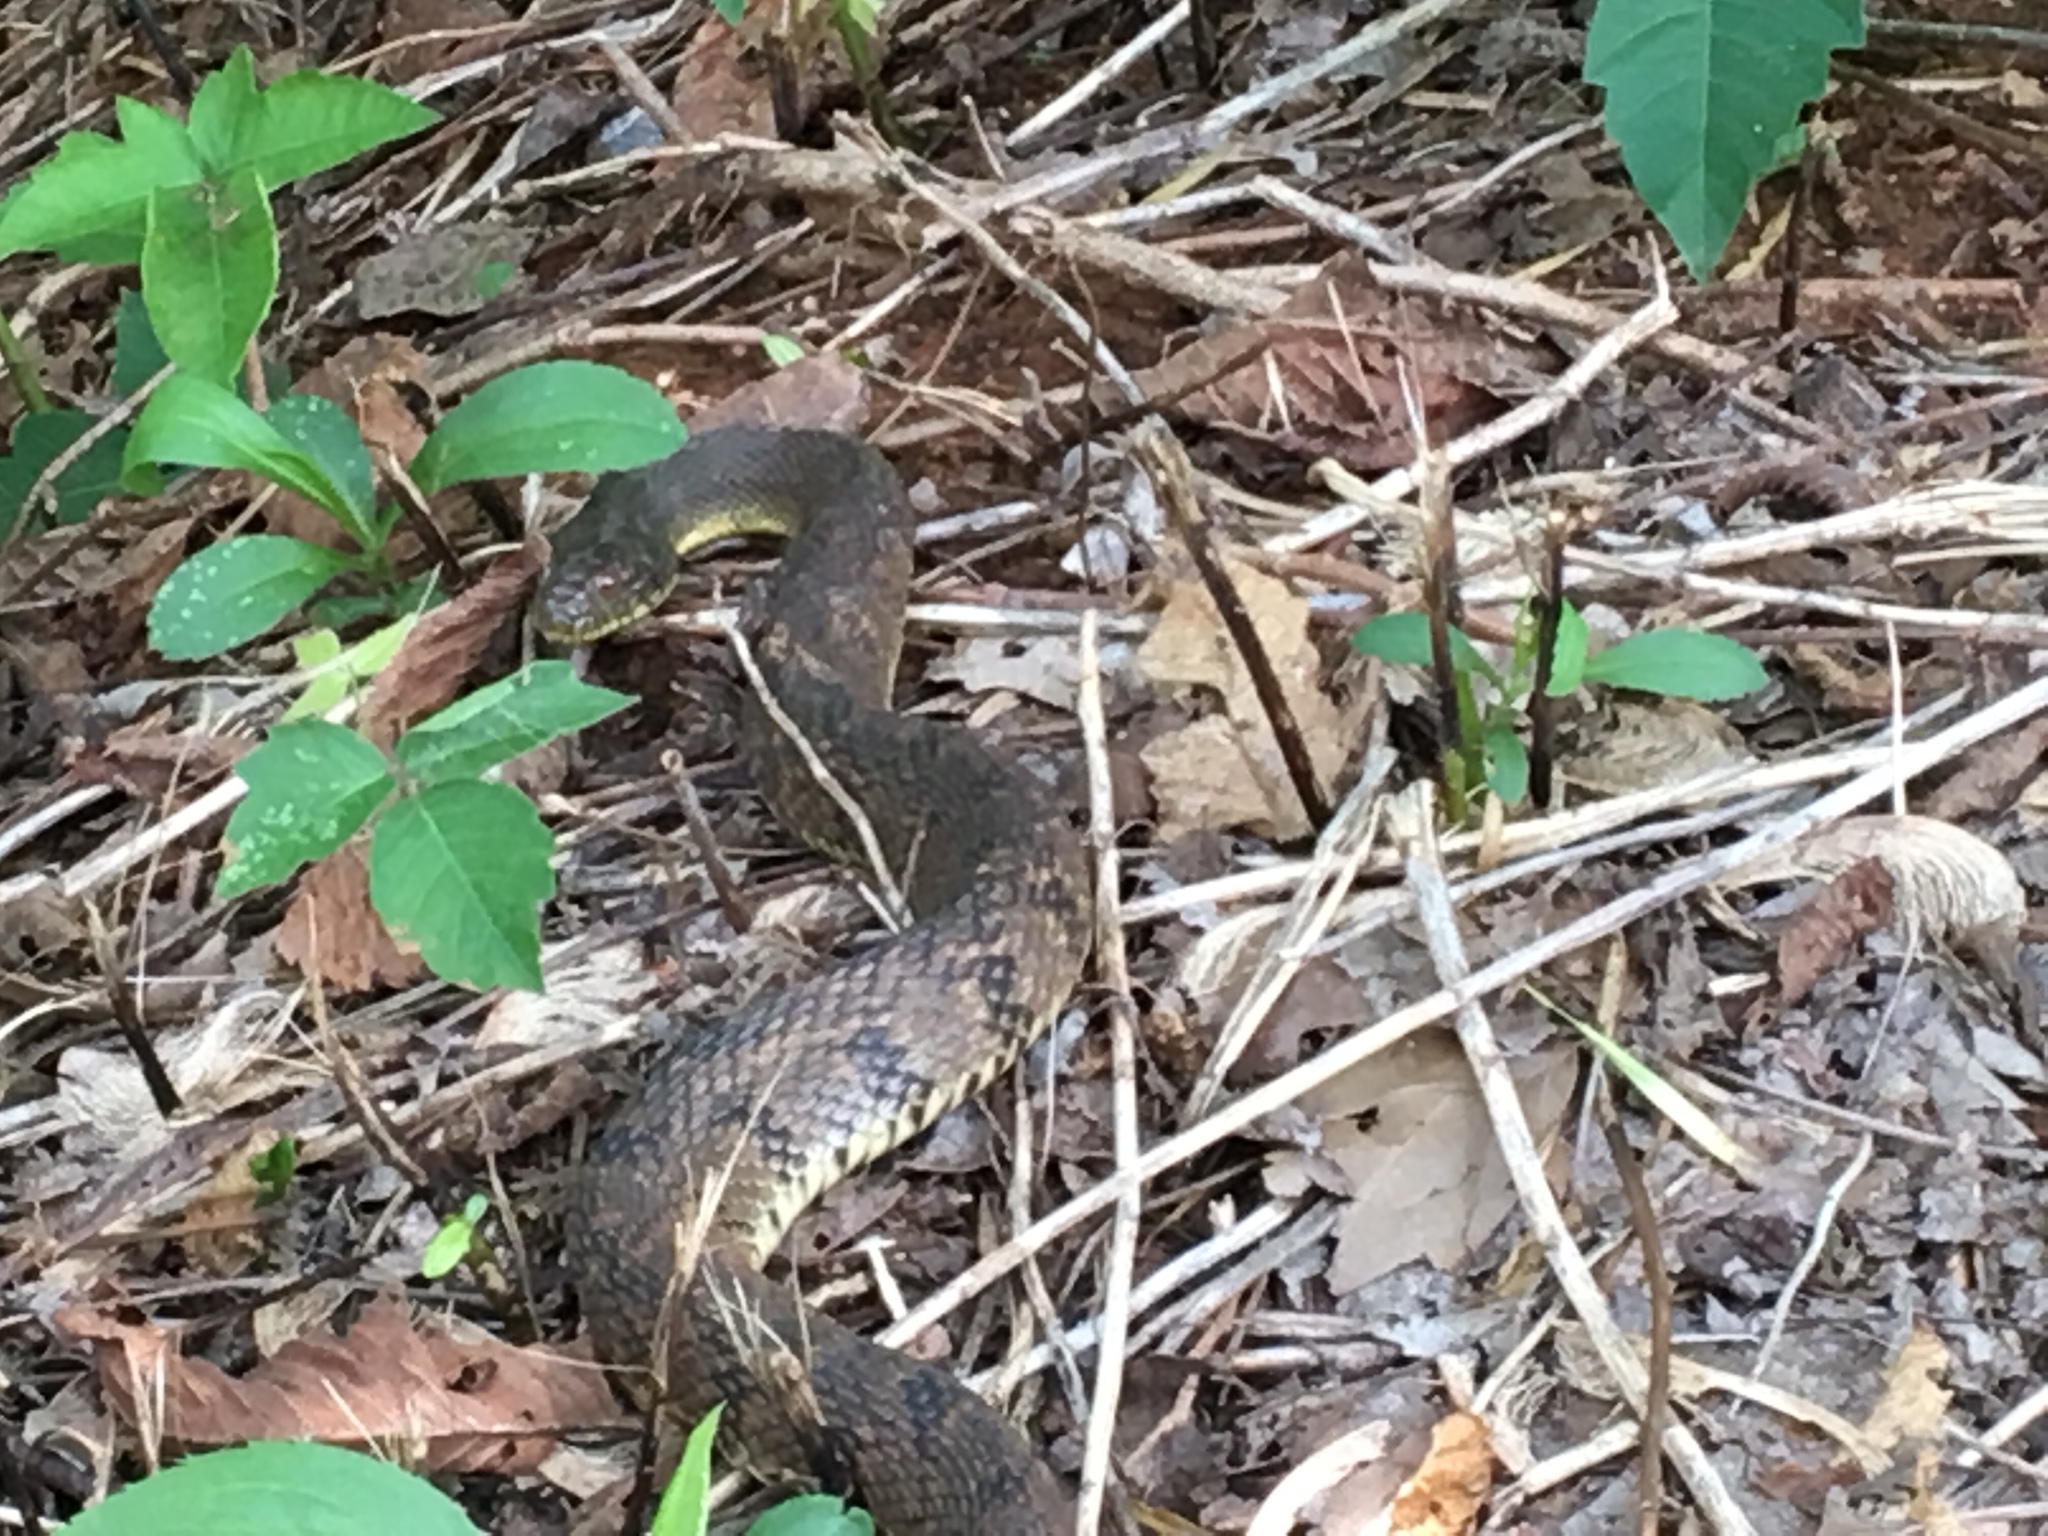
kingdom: Animalia
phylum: Chordata
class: Squamata
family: Colubridae
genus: Nerodia
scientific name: Nerodia rhombifer
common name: Diamondback water snake
